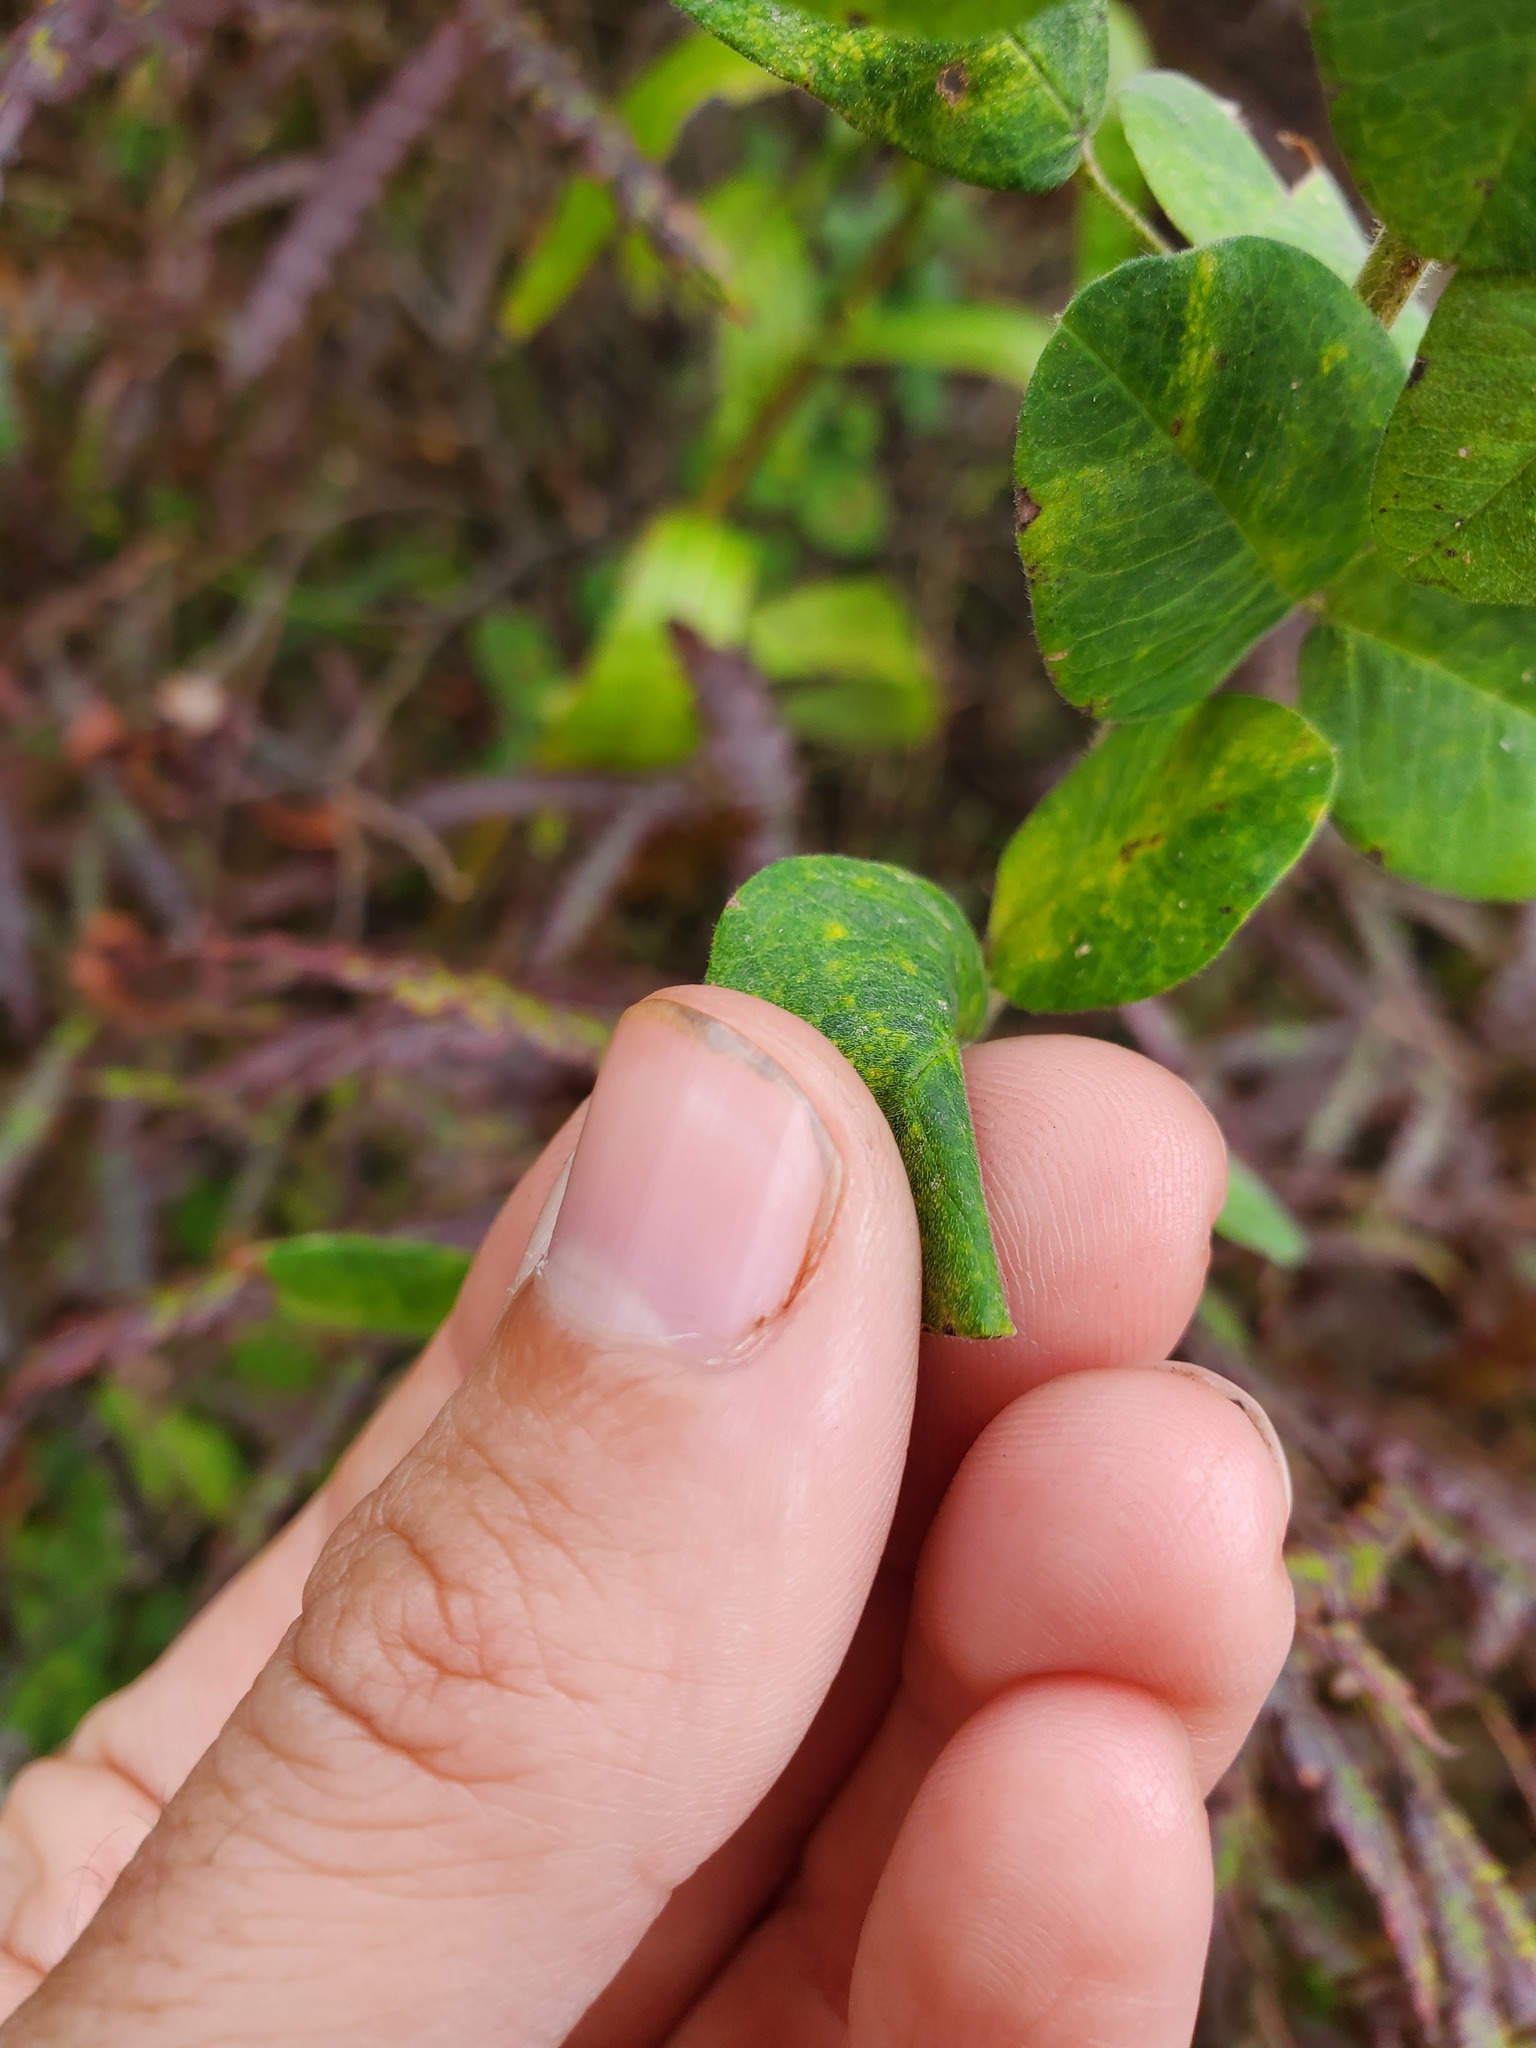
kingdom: Plantae
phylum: Tracheophyta
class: Magnoliopsida
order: Fabales
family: Fabaceae
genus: Lespedeza
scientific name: Lespedeza hirta
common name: Hairy lespedeza
